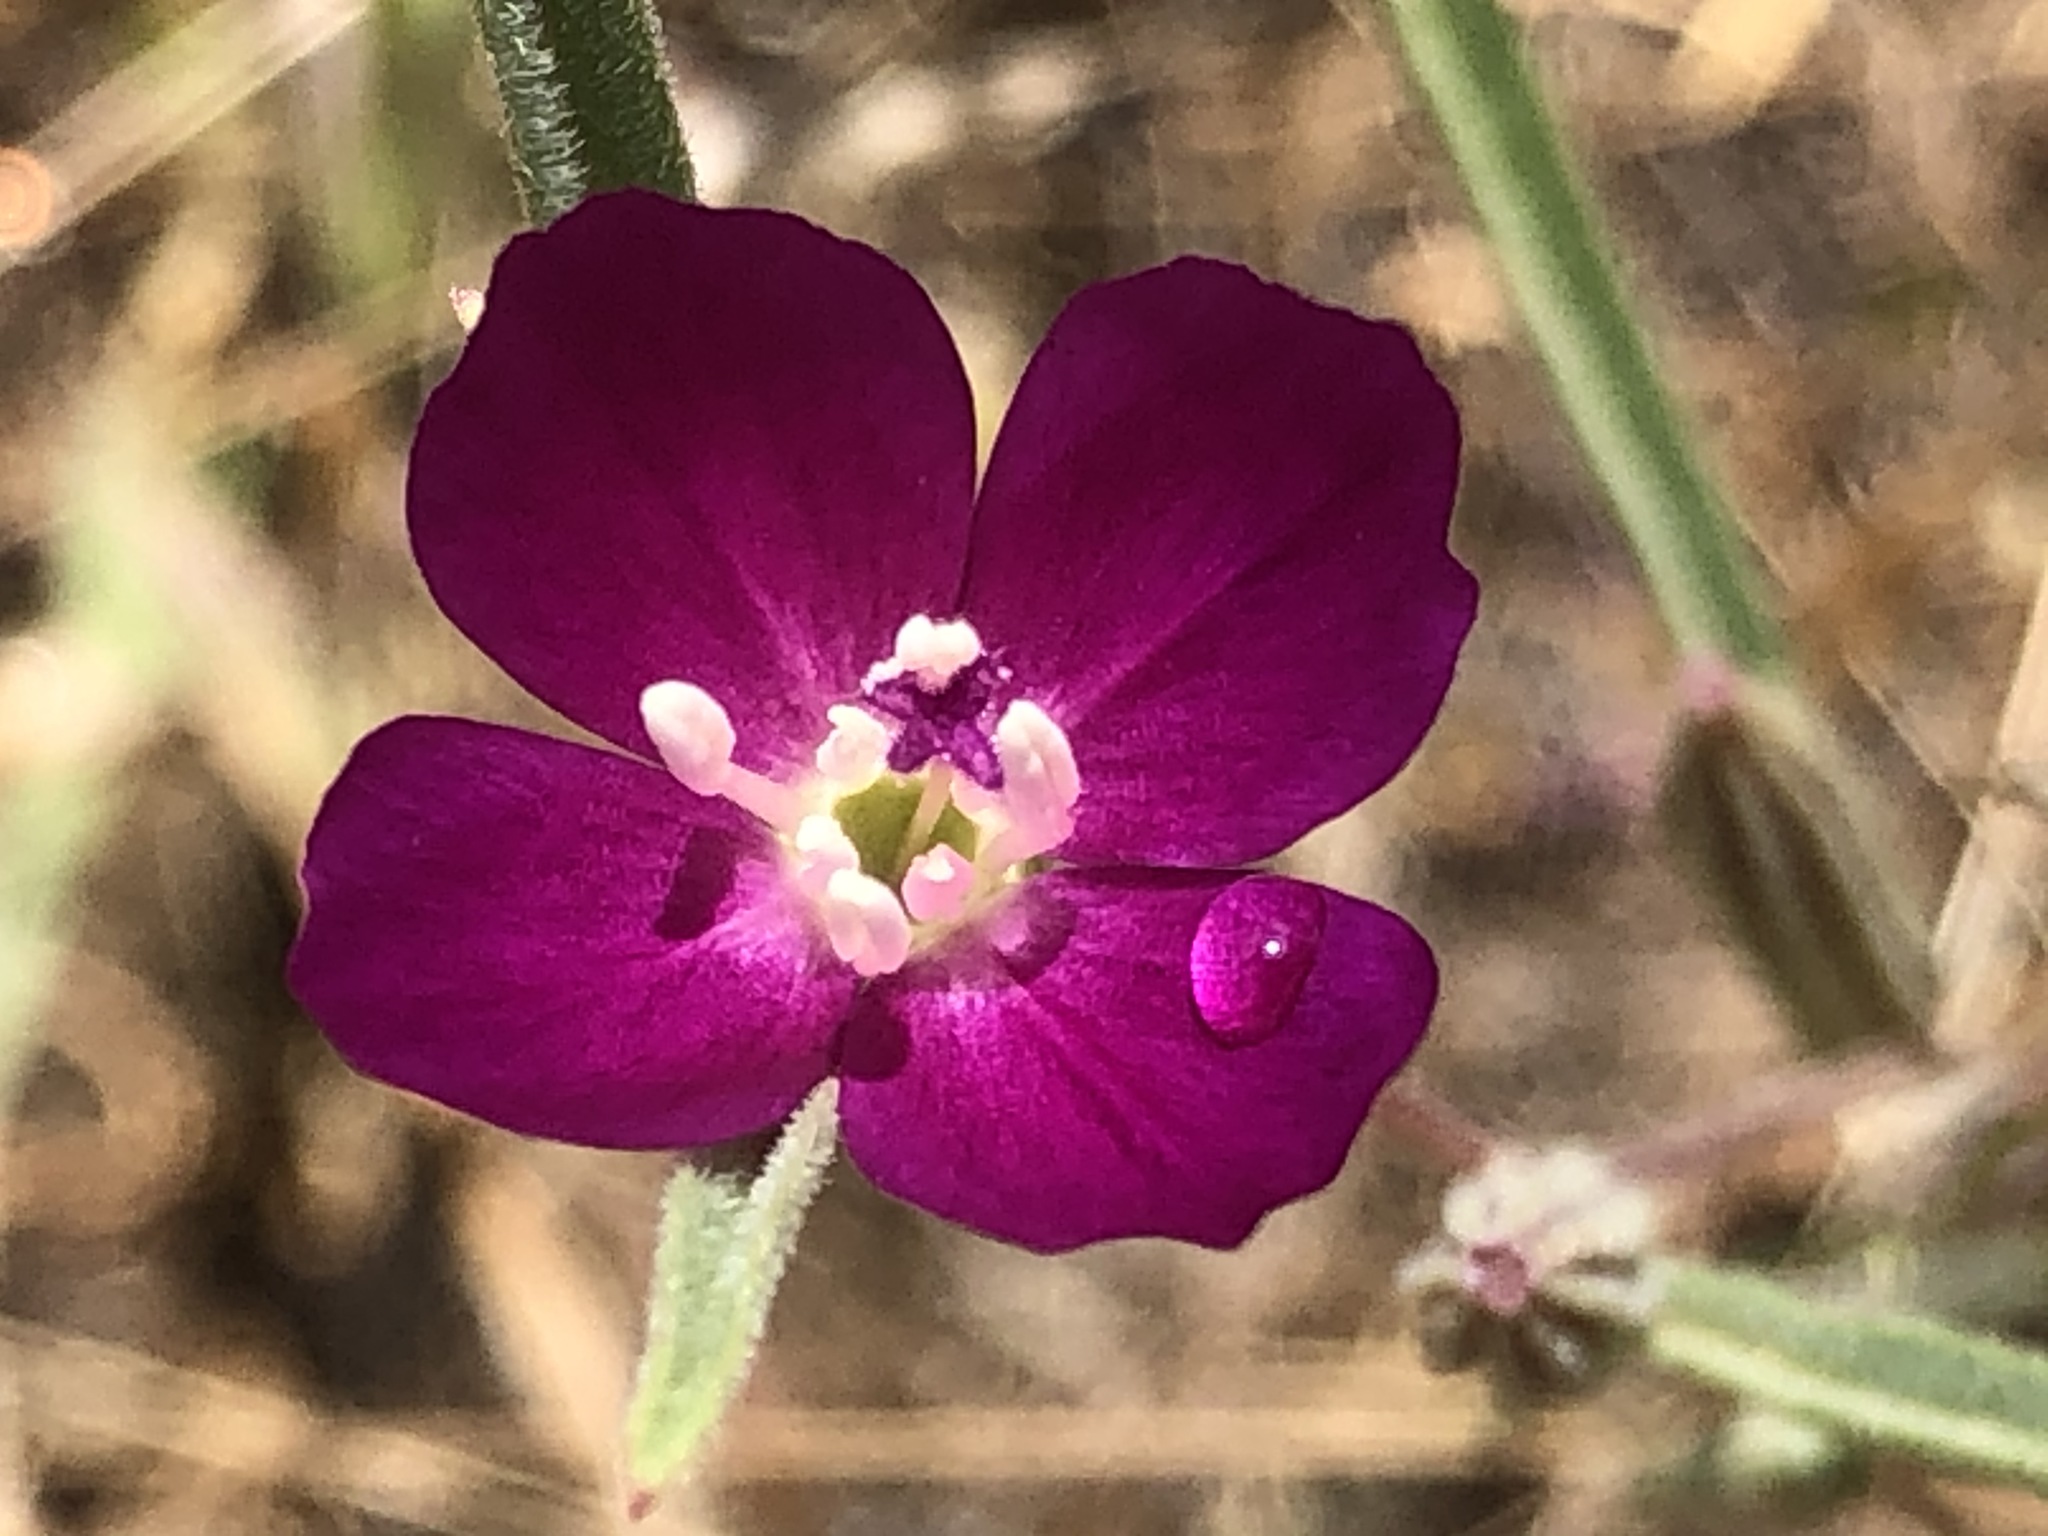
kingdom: Plantae
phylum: Tracheophyta
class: Magnoliopsida
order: Myrtales
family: Onagraceae
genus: Clarkia
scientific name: Clarkia purpurea
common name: Purple clarkia
